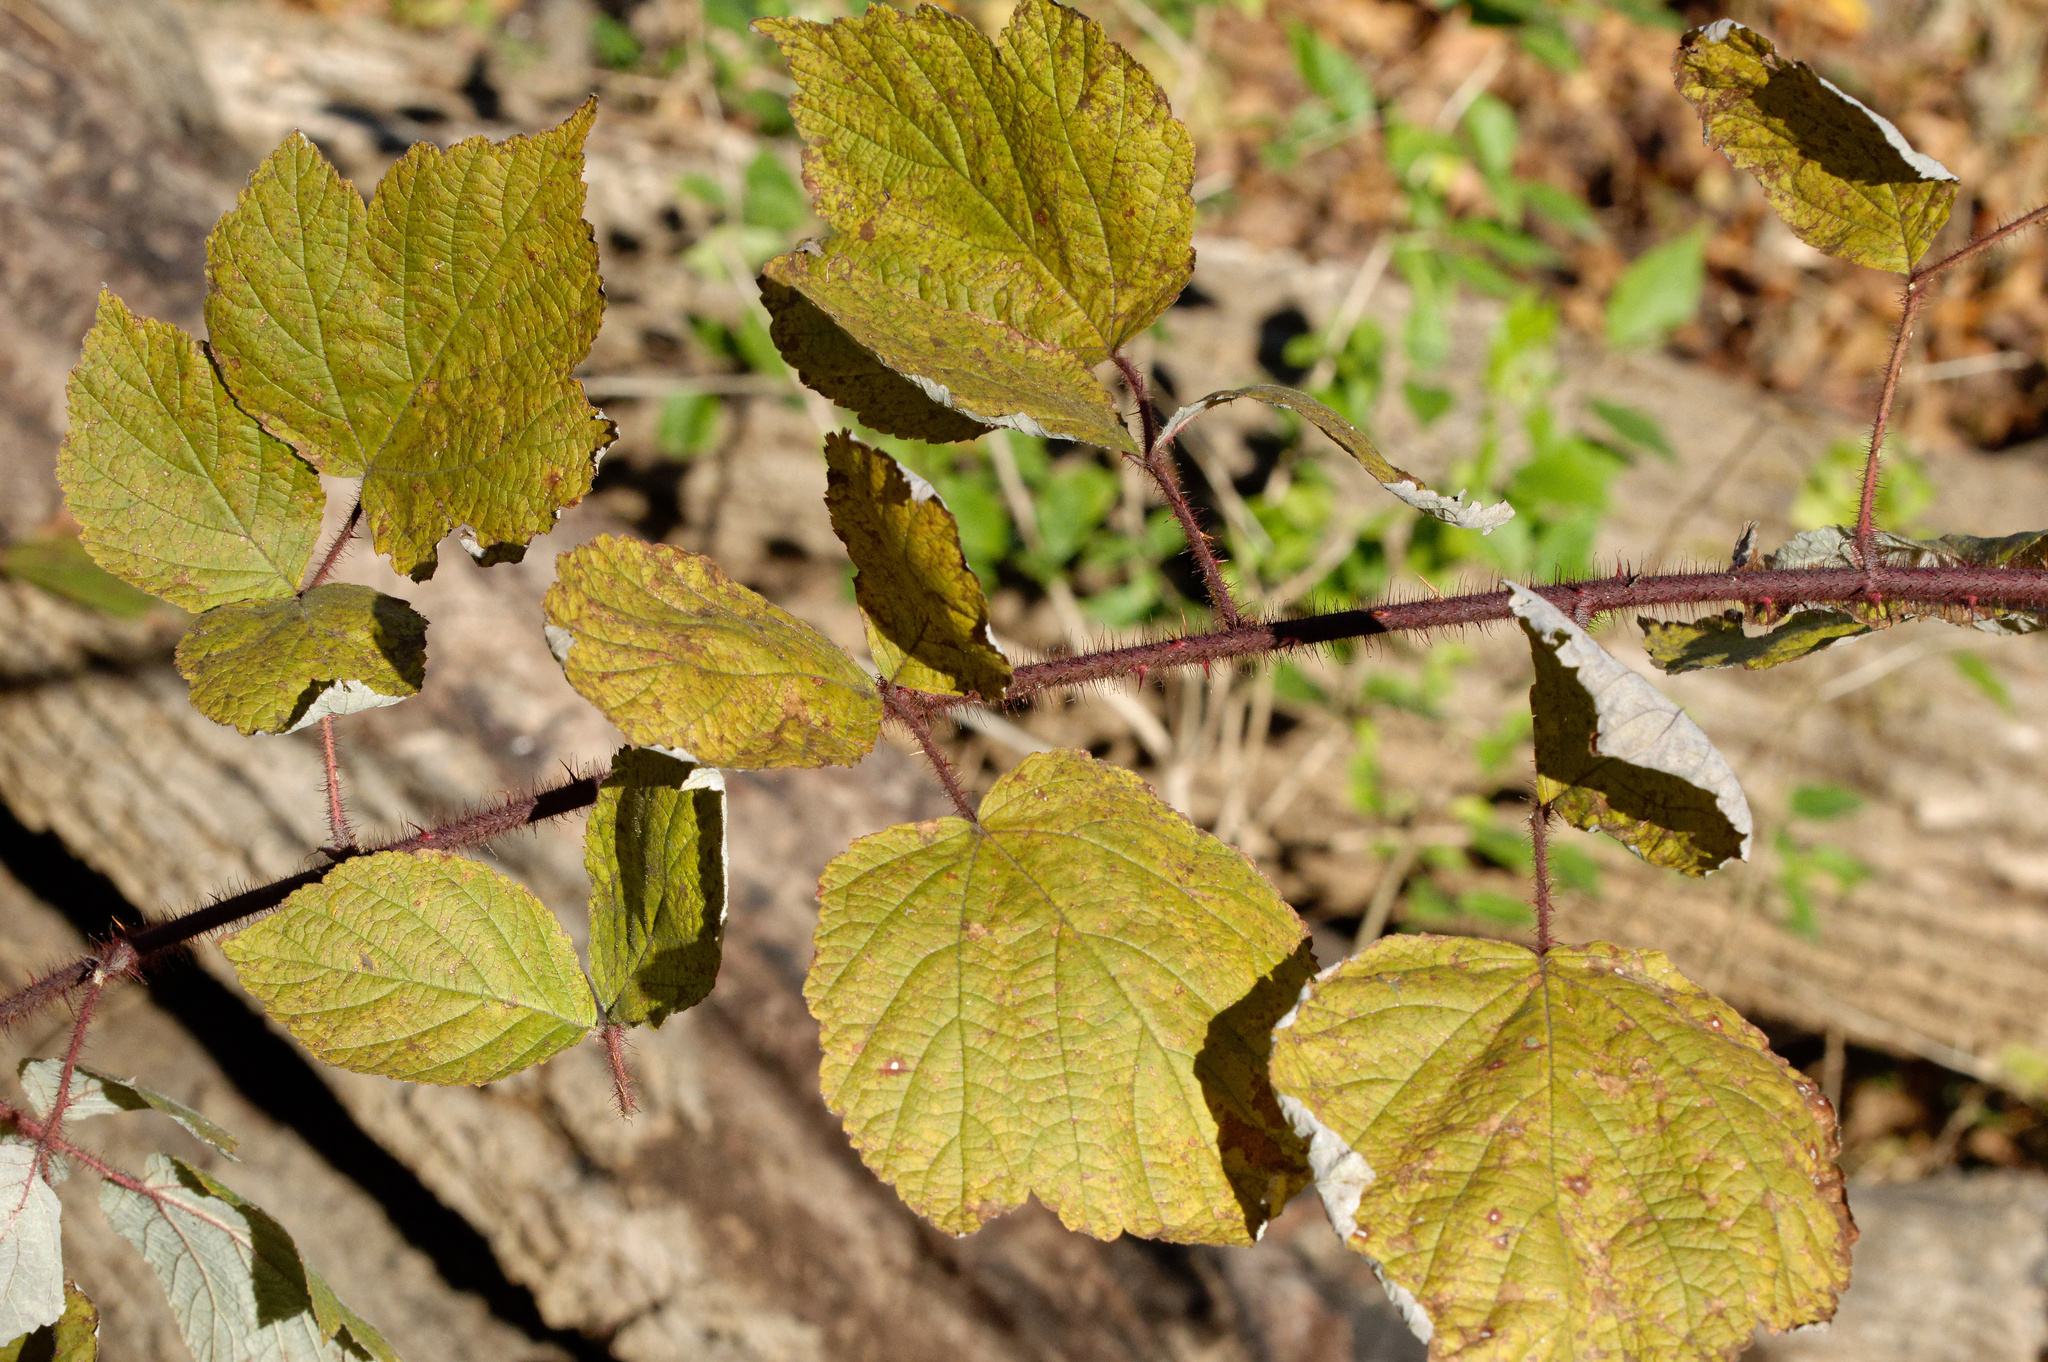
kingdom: Plantae
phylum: Tracheophyta
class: Magnoliopsida
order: Rosales
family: Rosaceae
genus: Rubus
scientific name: Rubus phoenicolasius
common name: Japanese wineberry
